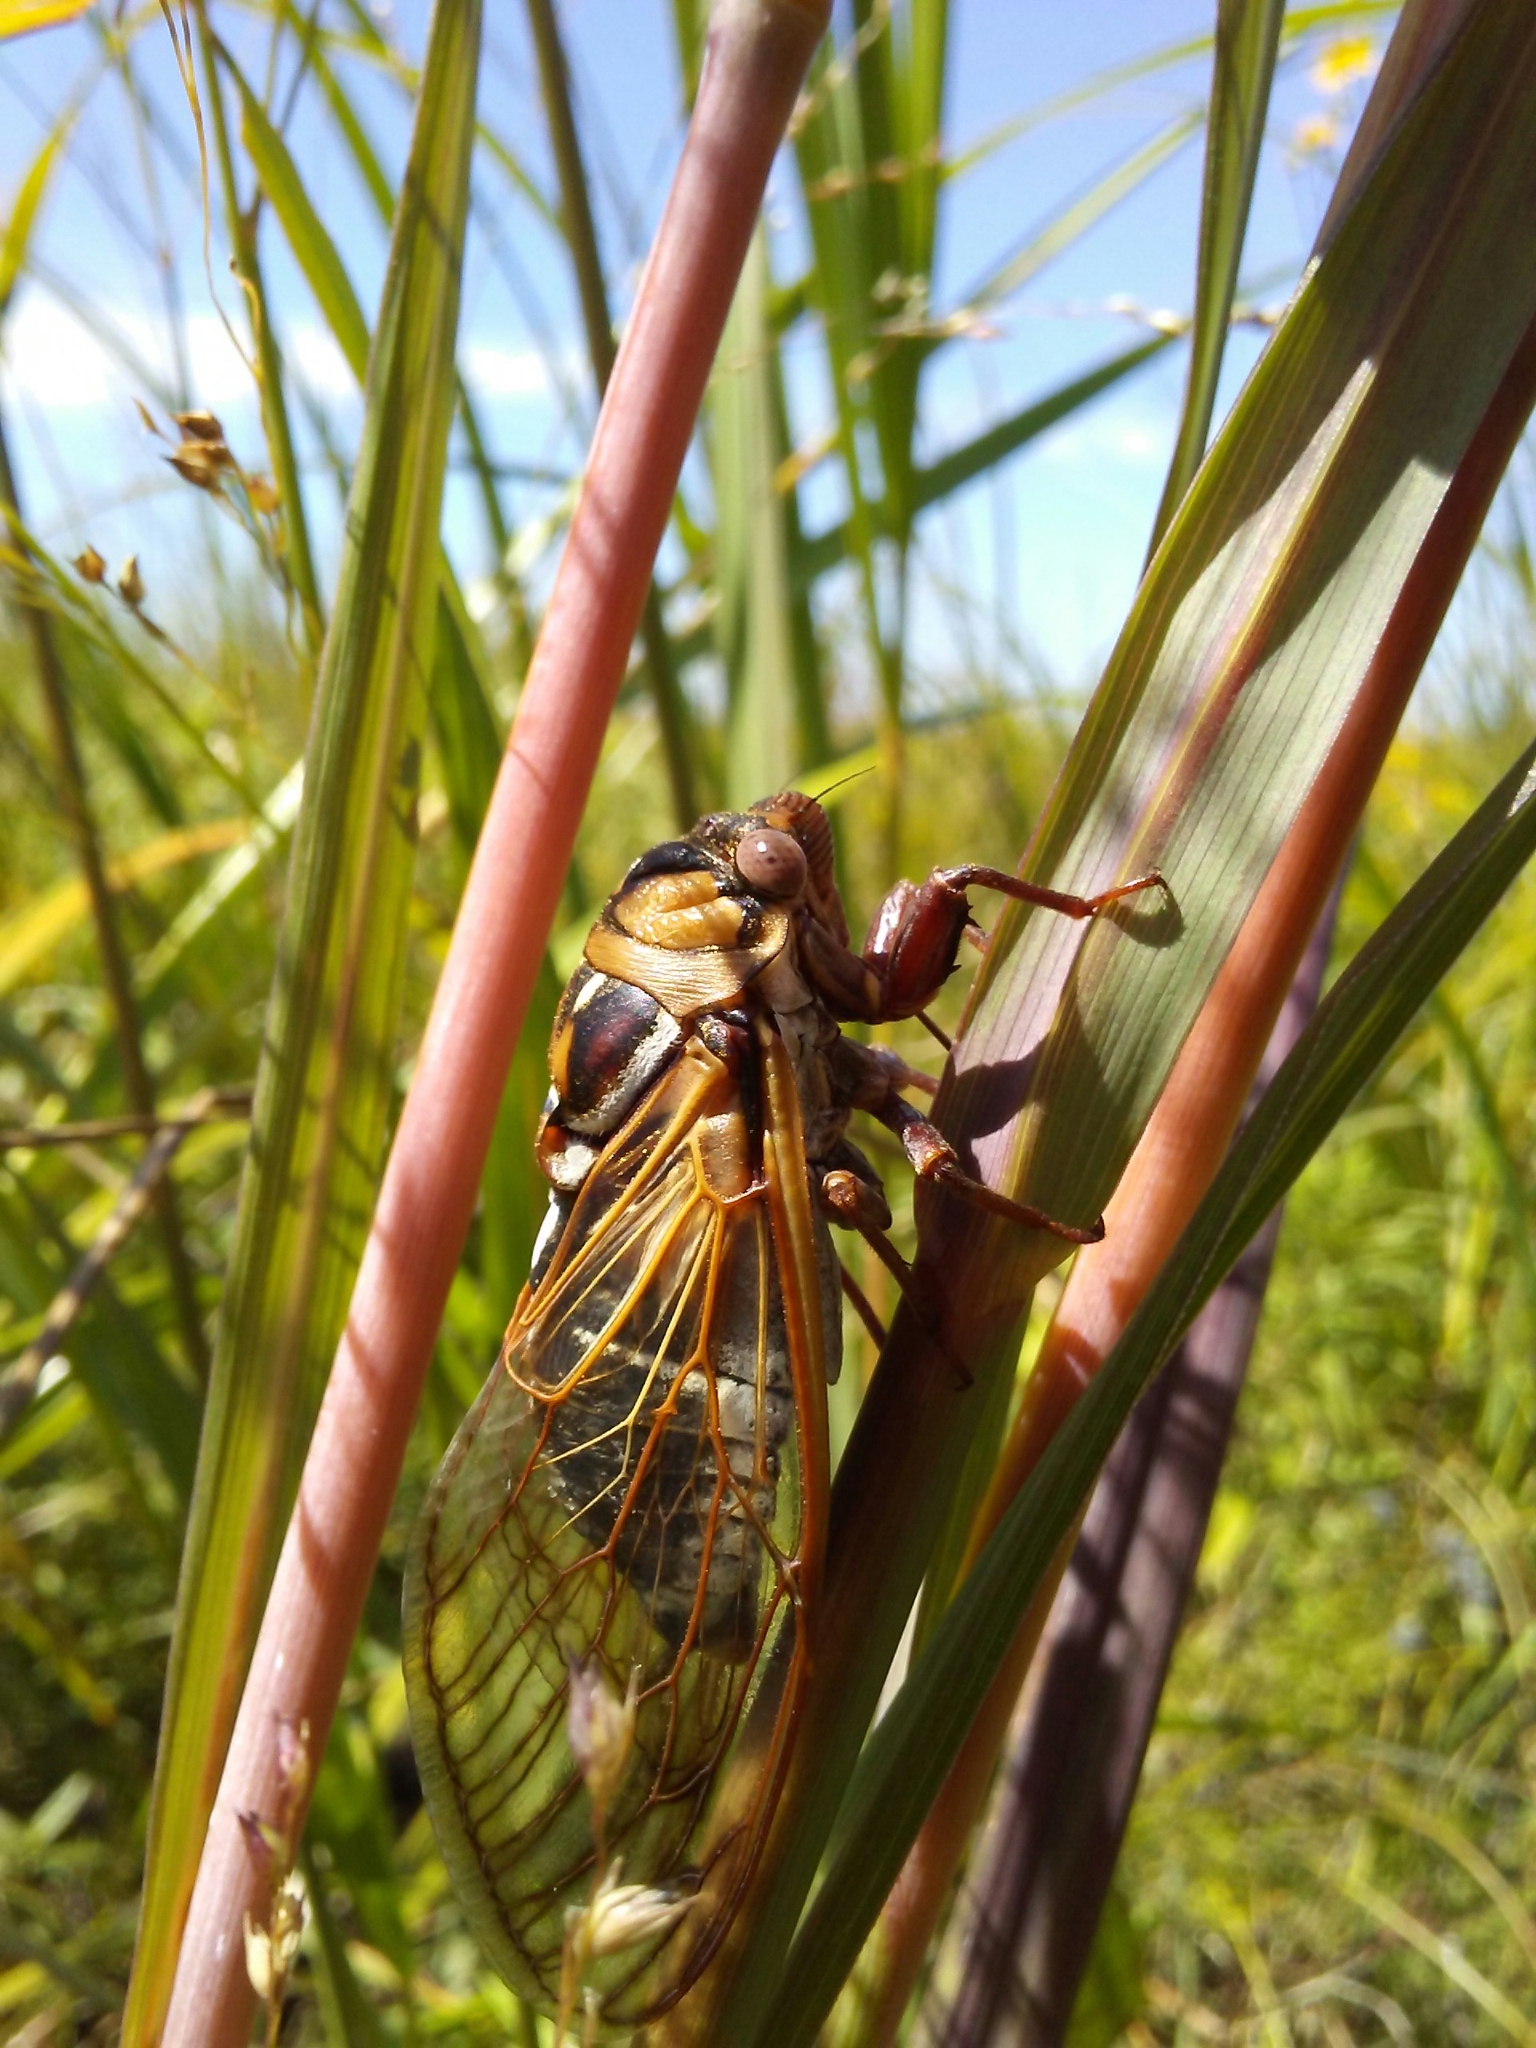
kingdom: Animalia
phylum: Arthropoda
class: Insecta
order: Hemiptera
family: Cicadidae
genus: Megatibicen
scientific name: Megatibicen dorsatus
